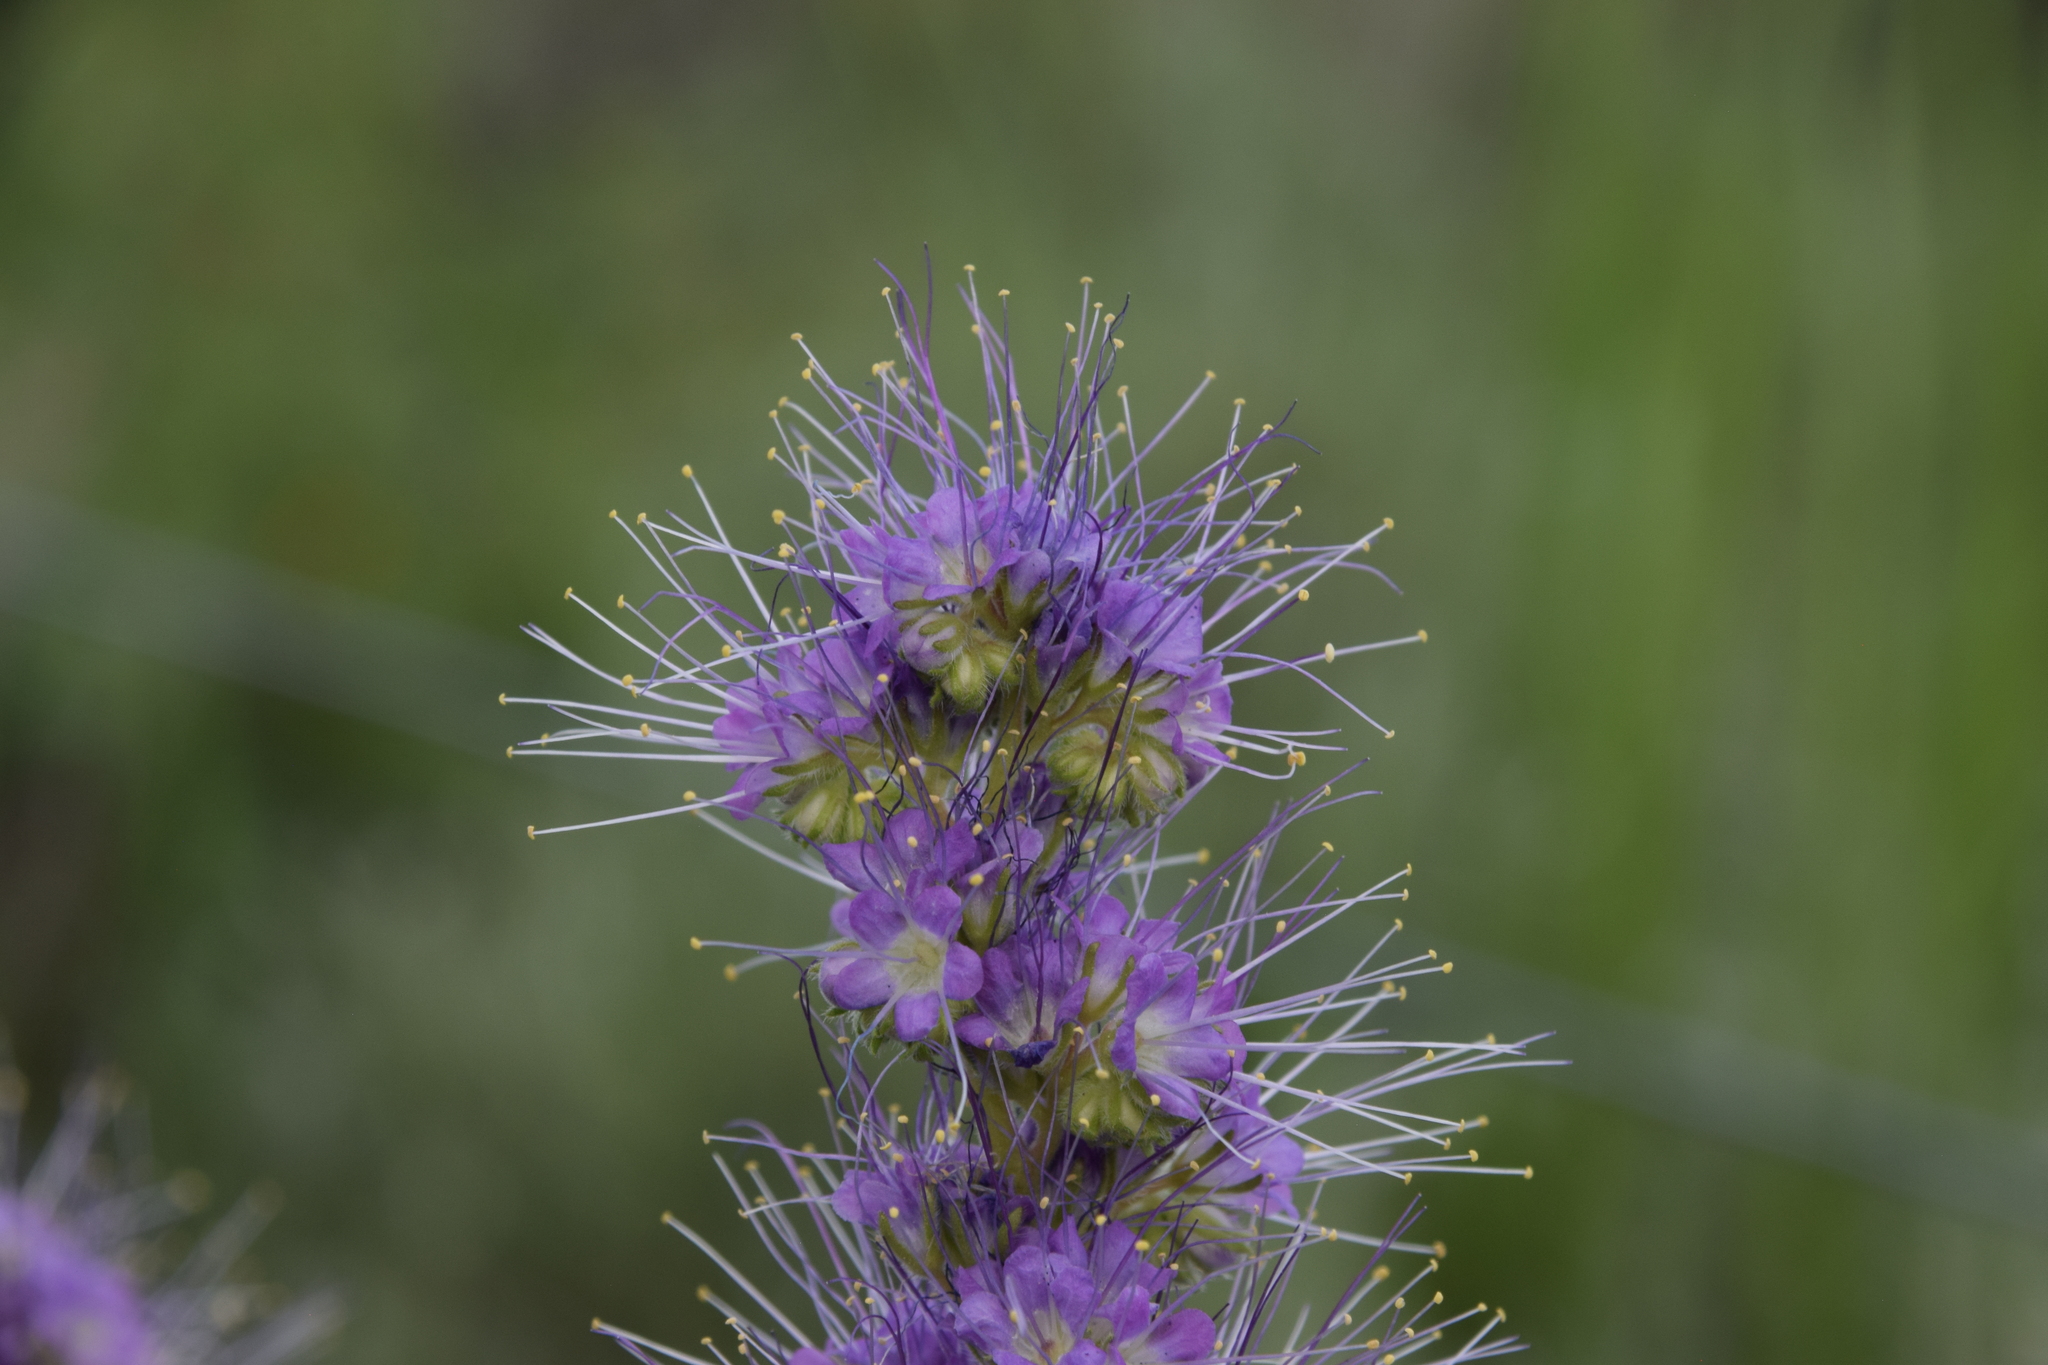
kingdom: Plantae
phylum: Tracheophyta
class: Magnoliopsida
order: Boraginales
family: Hydrophyllaceae
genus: Phacelia
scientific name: Phacelia sericea
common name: Silky phacelia
